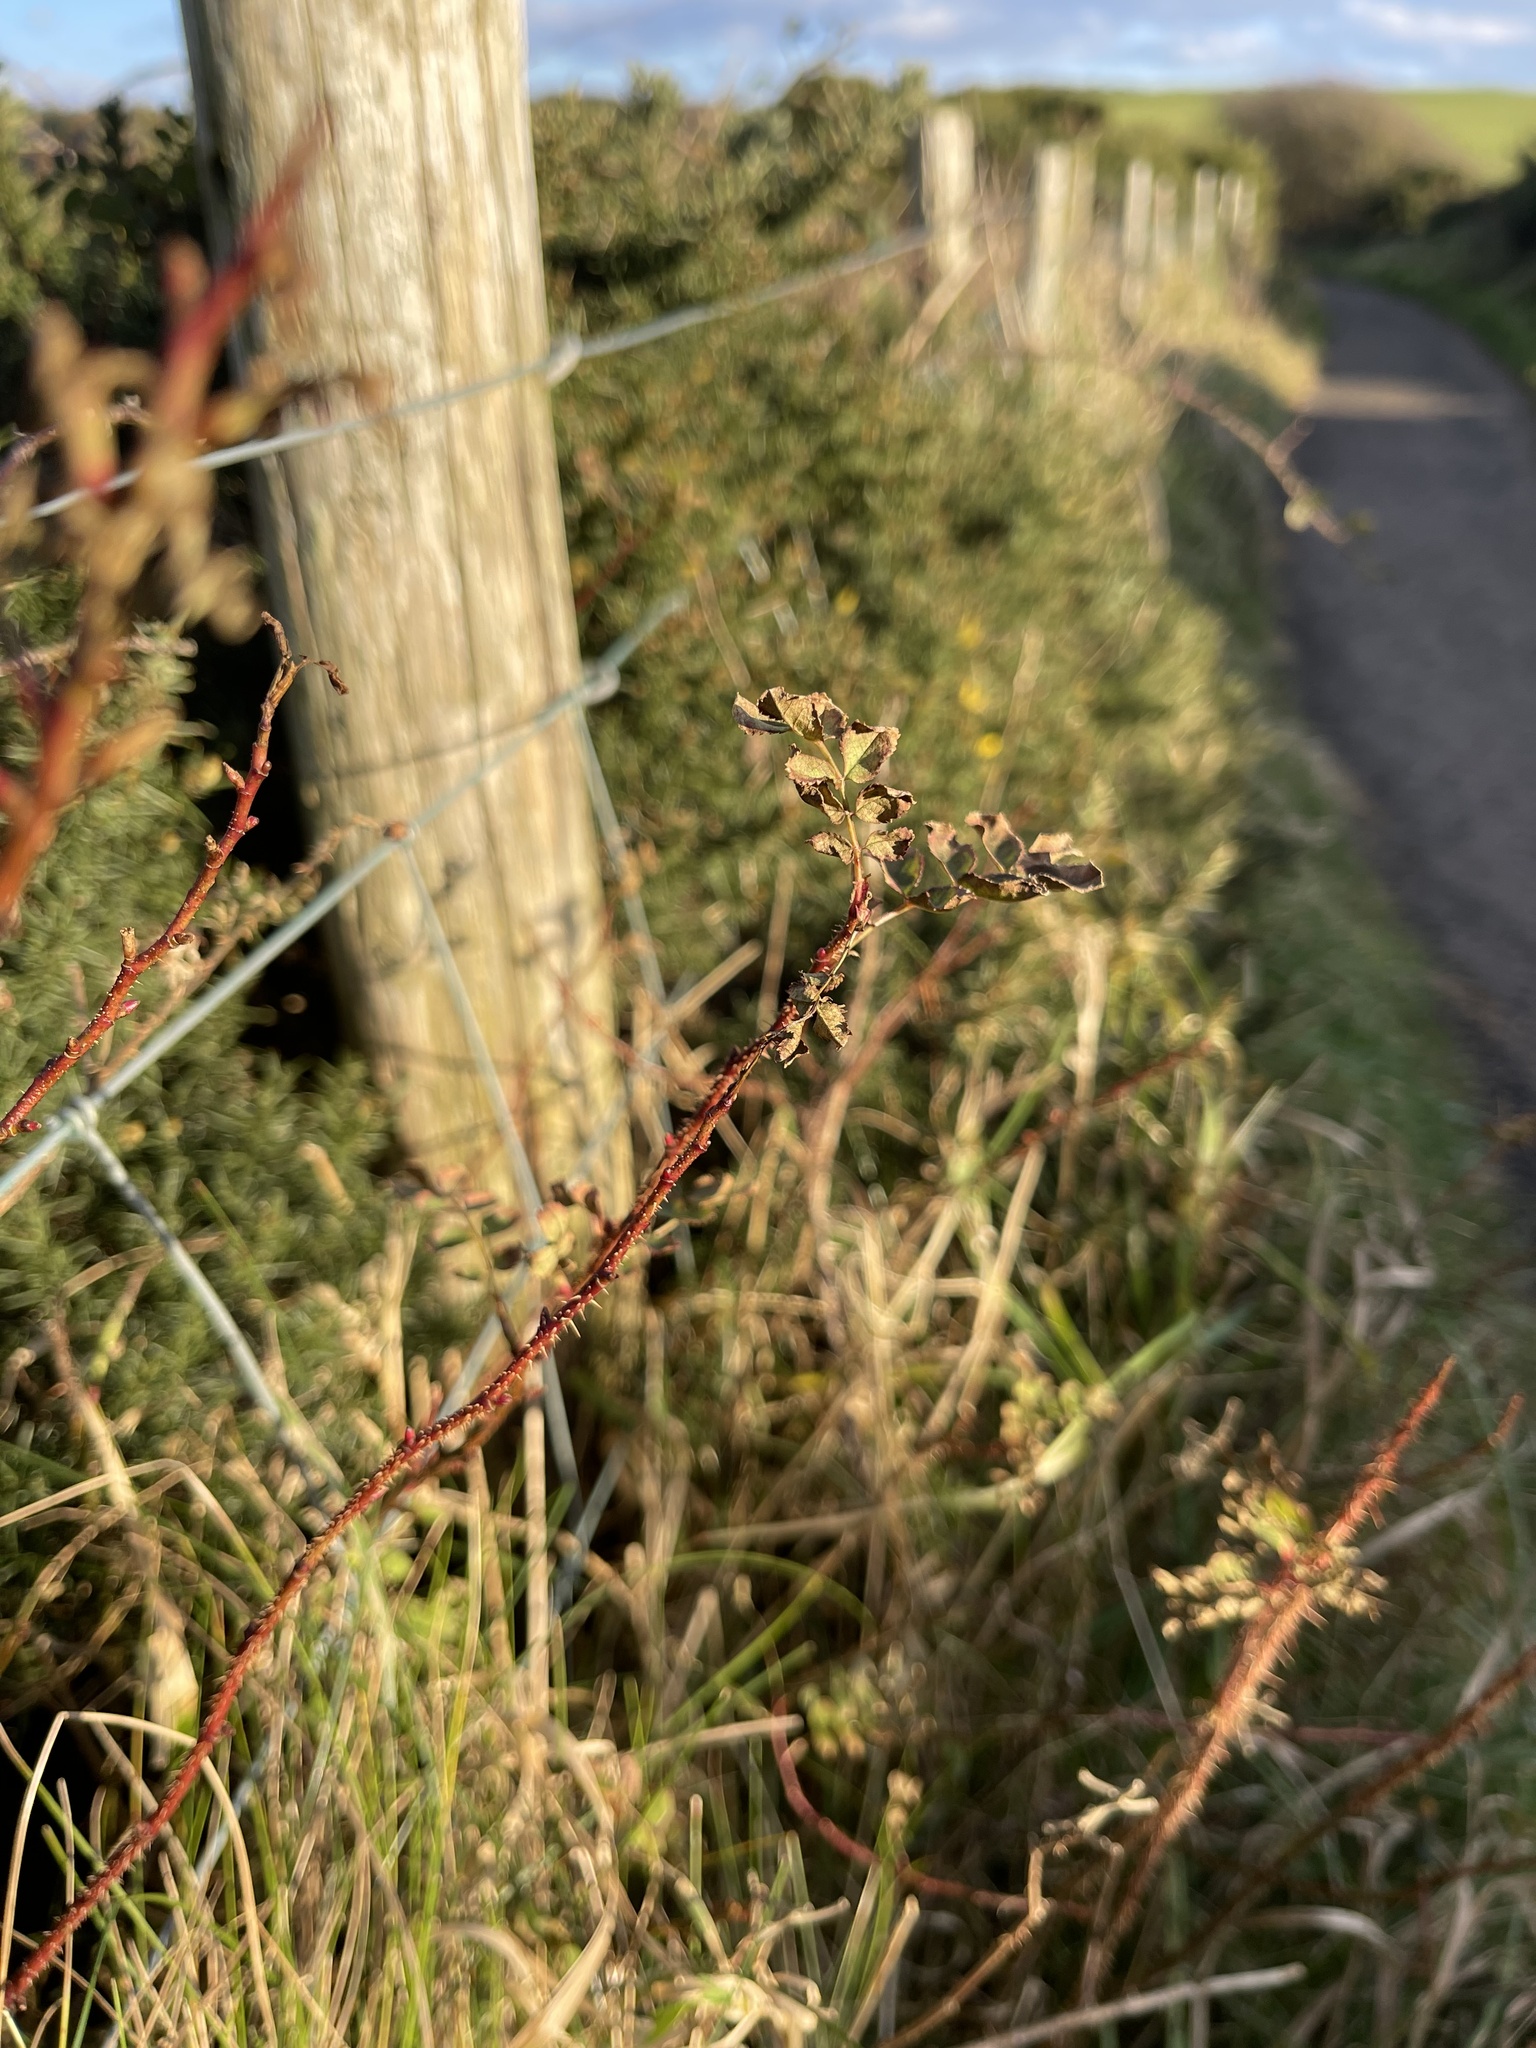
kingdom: Plantae
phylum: Tracheophyta
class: Magnoliopsida
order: Rosales
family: Rosaceae
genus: Rosa
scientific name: Rosa spinosissima
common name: Burnet rose
